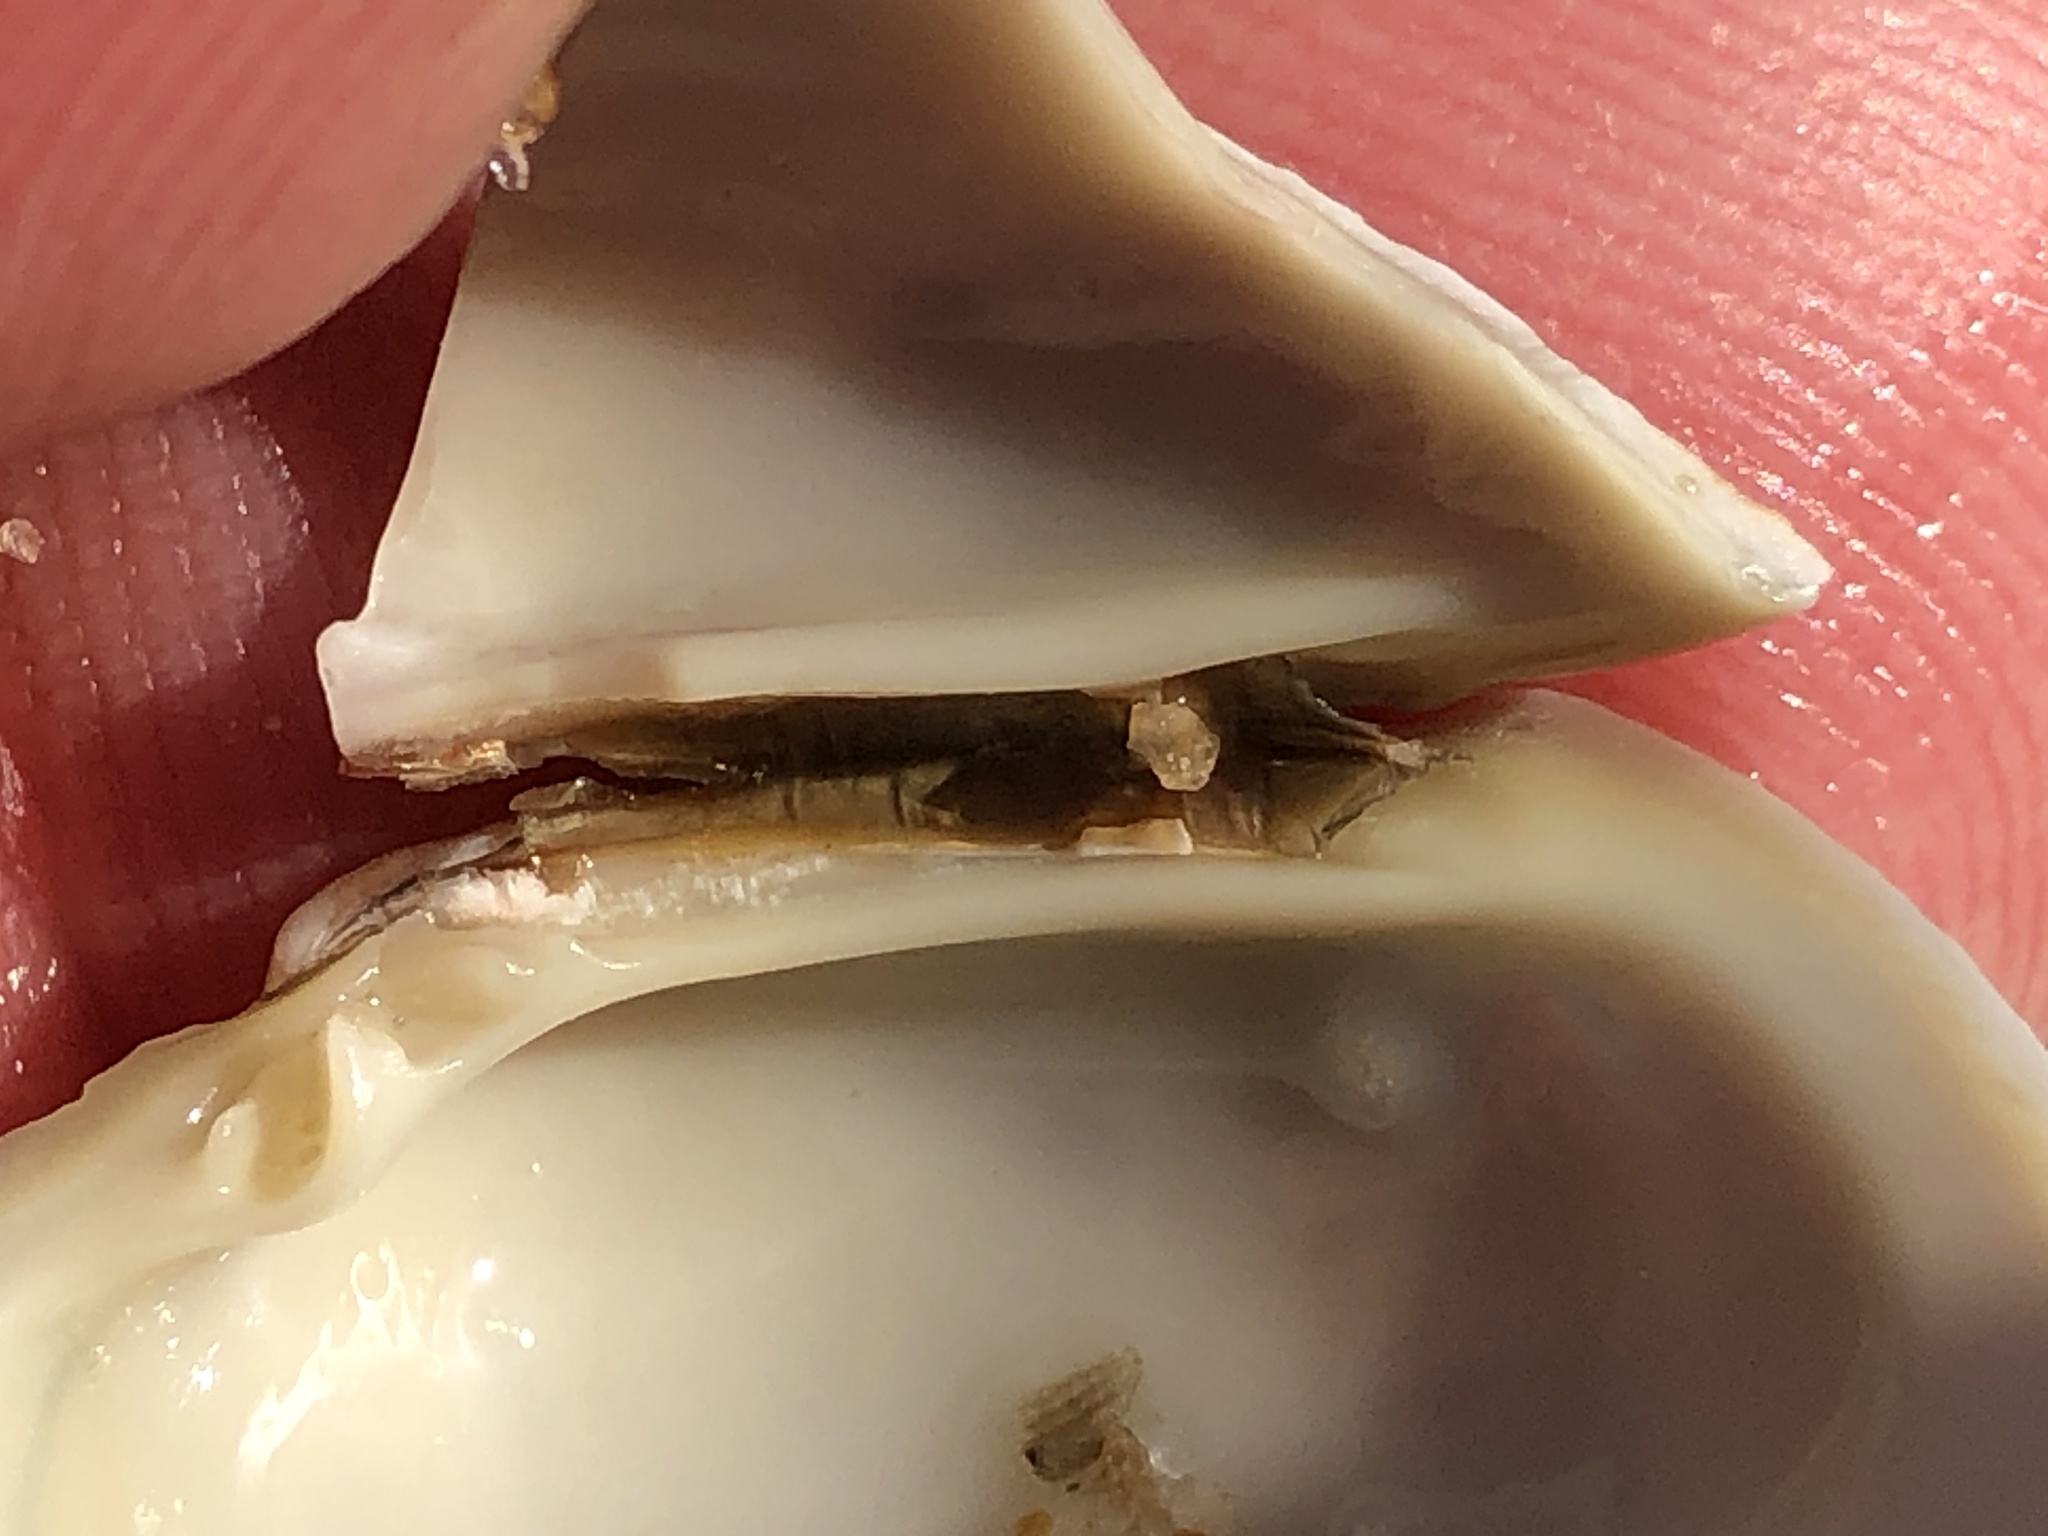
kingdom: Animalia
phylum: Mollusca
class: Bivalvia
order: Venerida
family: Veneridae
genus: Leukoma
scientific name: Leukoma staminea
